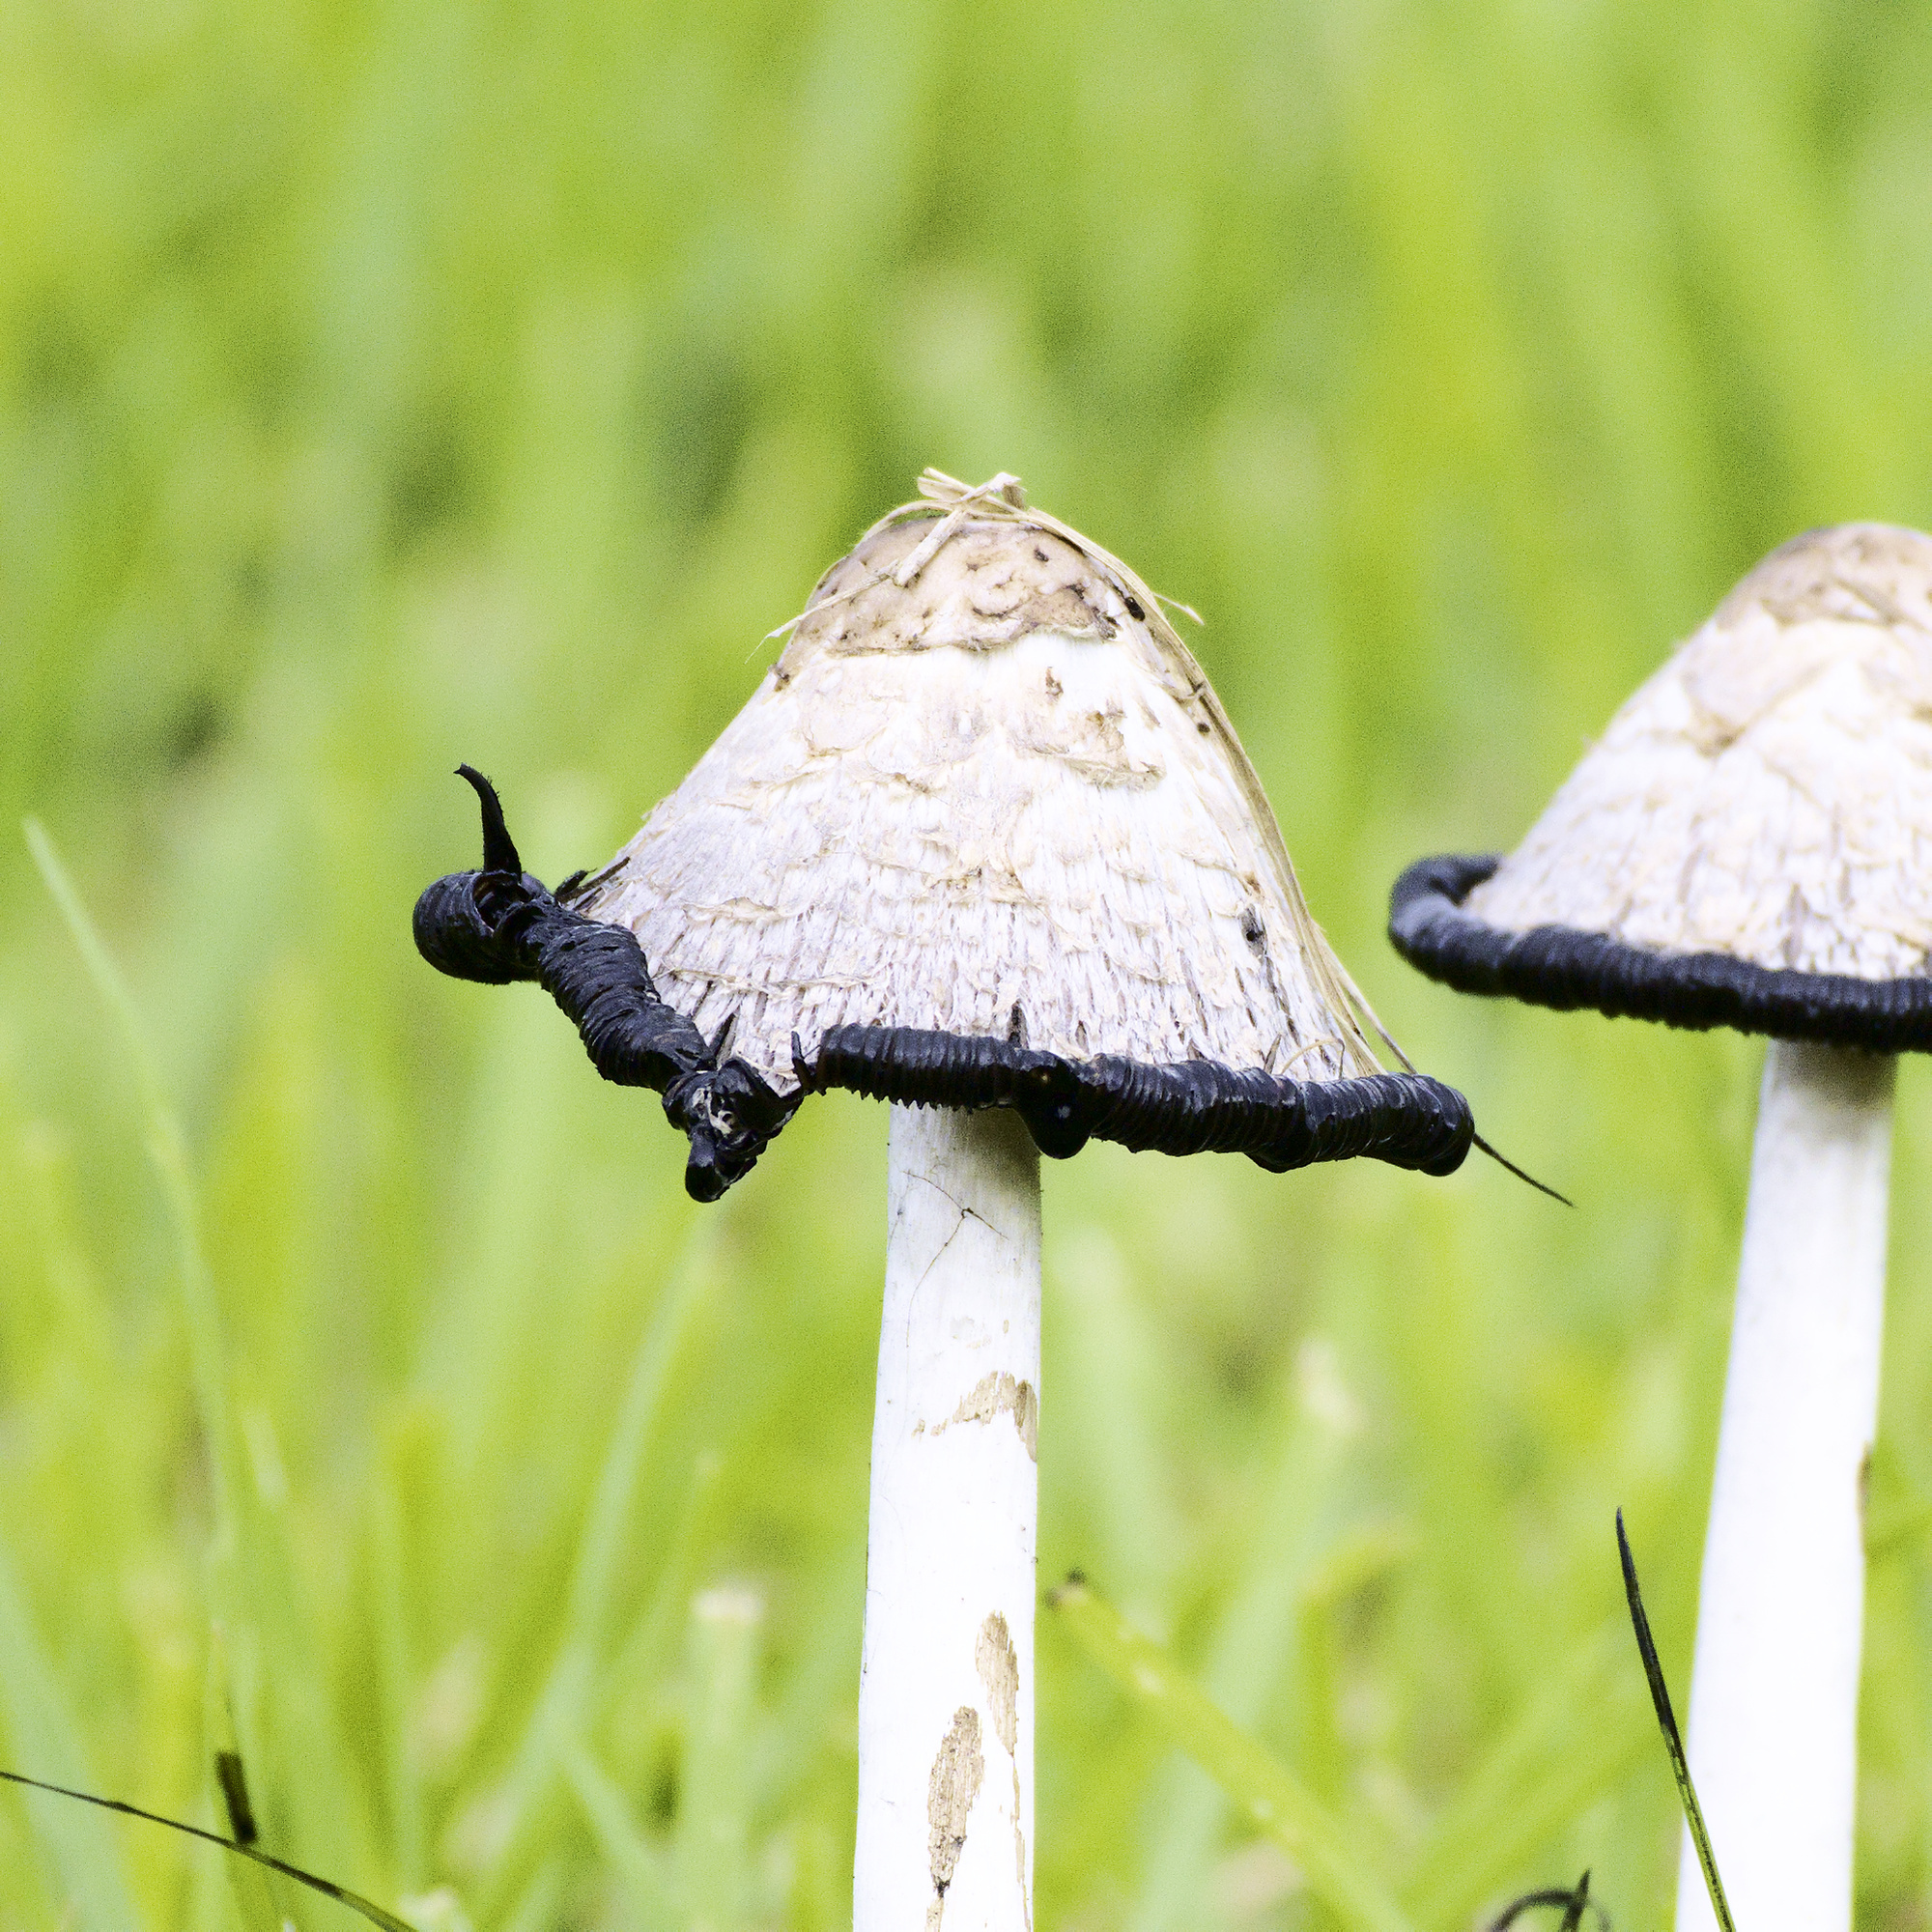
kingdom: Fungi
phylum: Basidiomycota
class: Agaricomycetes
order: Agaricales
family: Agaricaceae
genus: Coprinus
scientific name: Coprinus comatus
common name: Lawyer's wig
